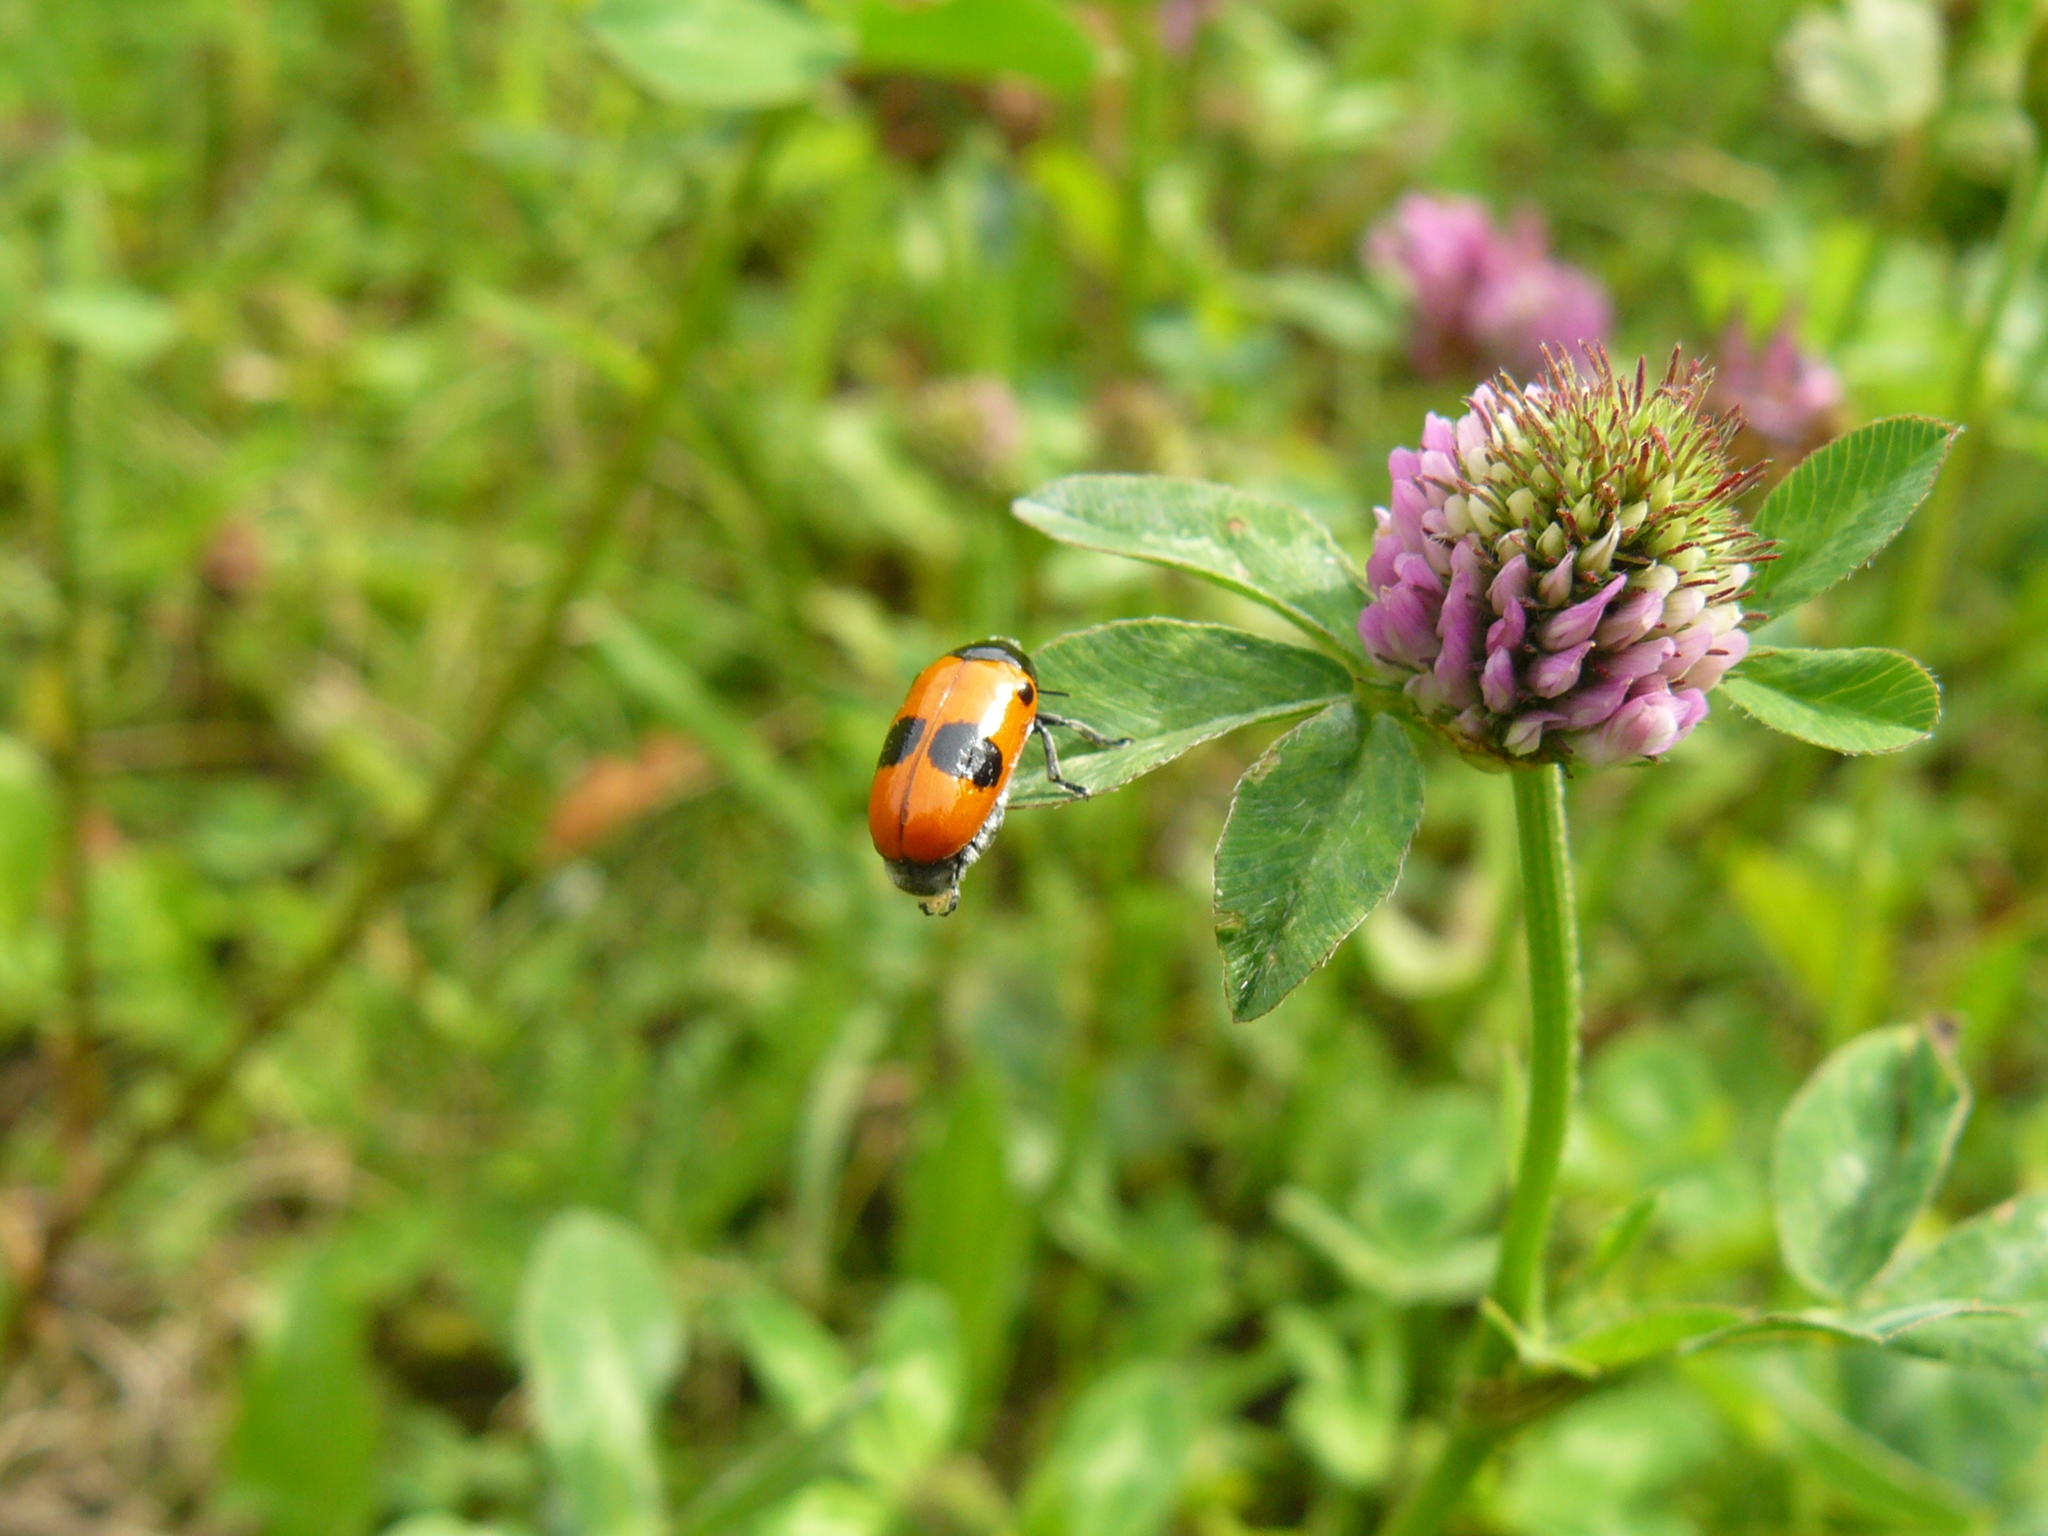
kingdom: Animalia
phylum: Arthropoda
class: Insecta
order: Coleoptera
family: Chrysomelidae
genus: Clytra
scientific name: Clytra laeviuscula
